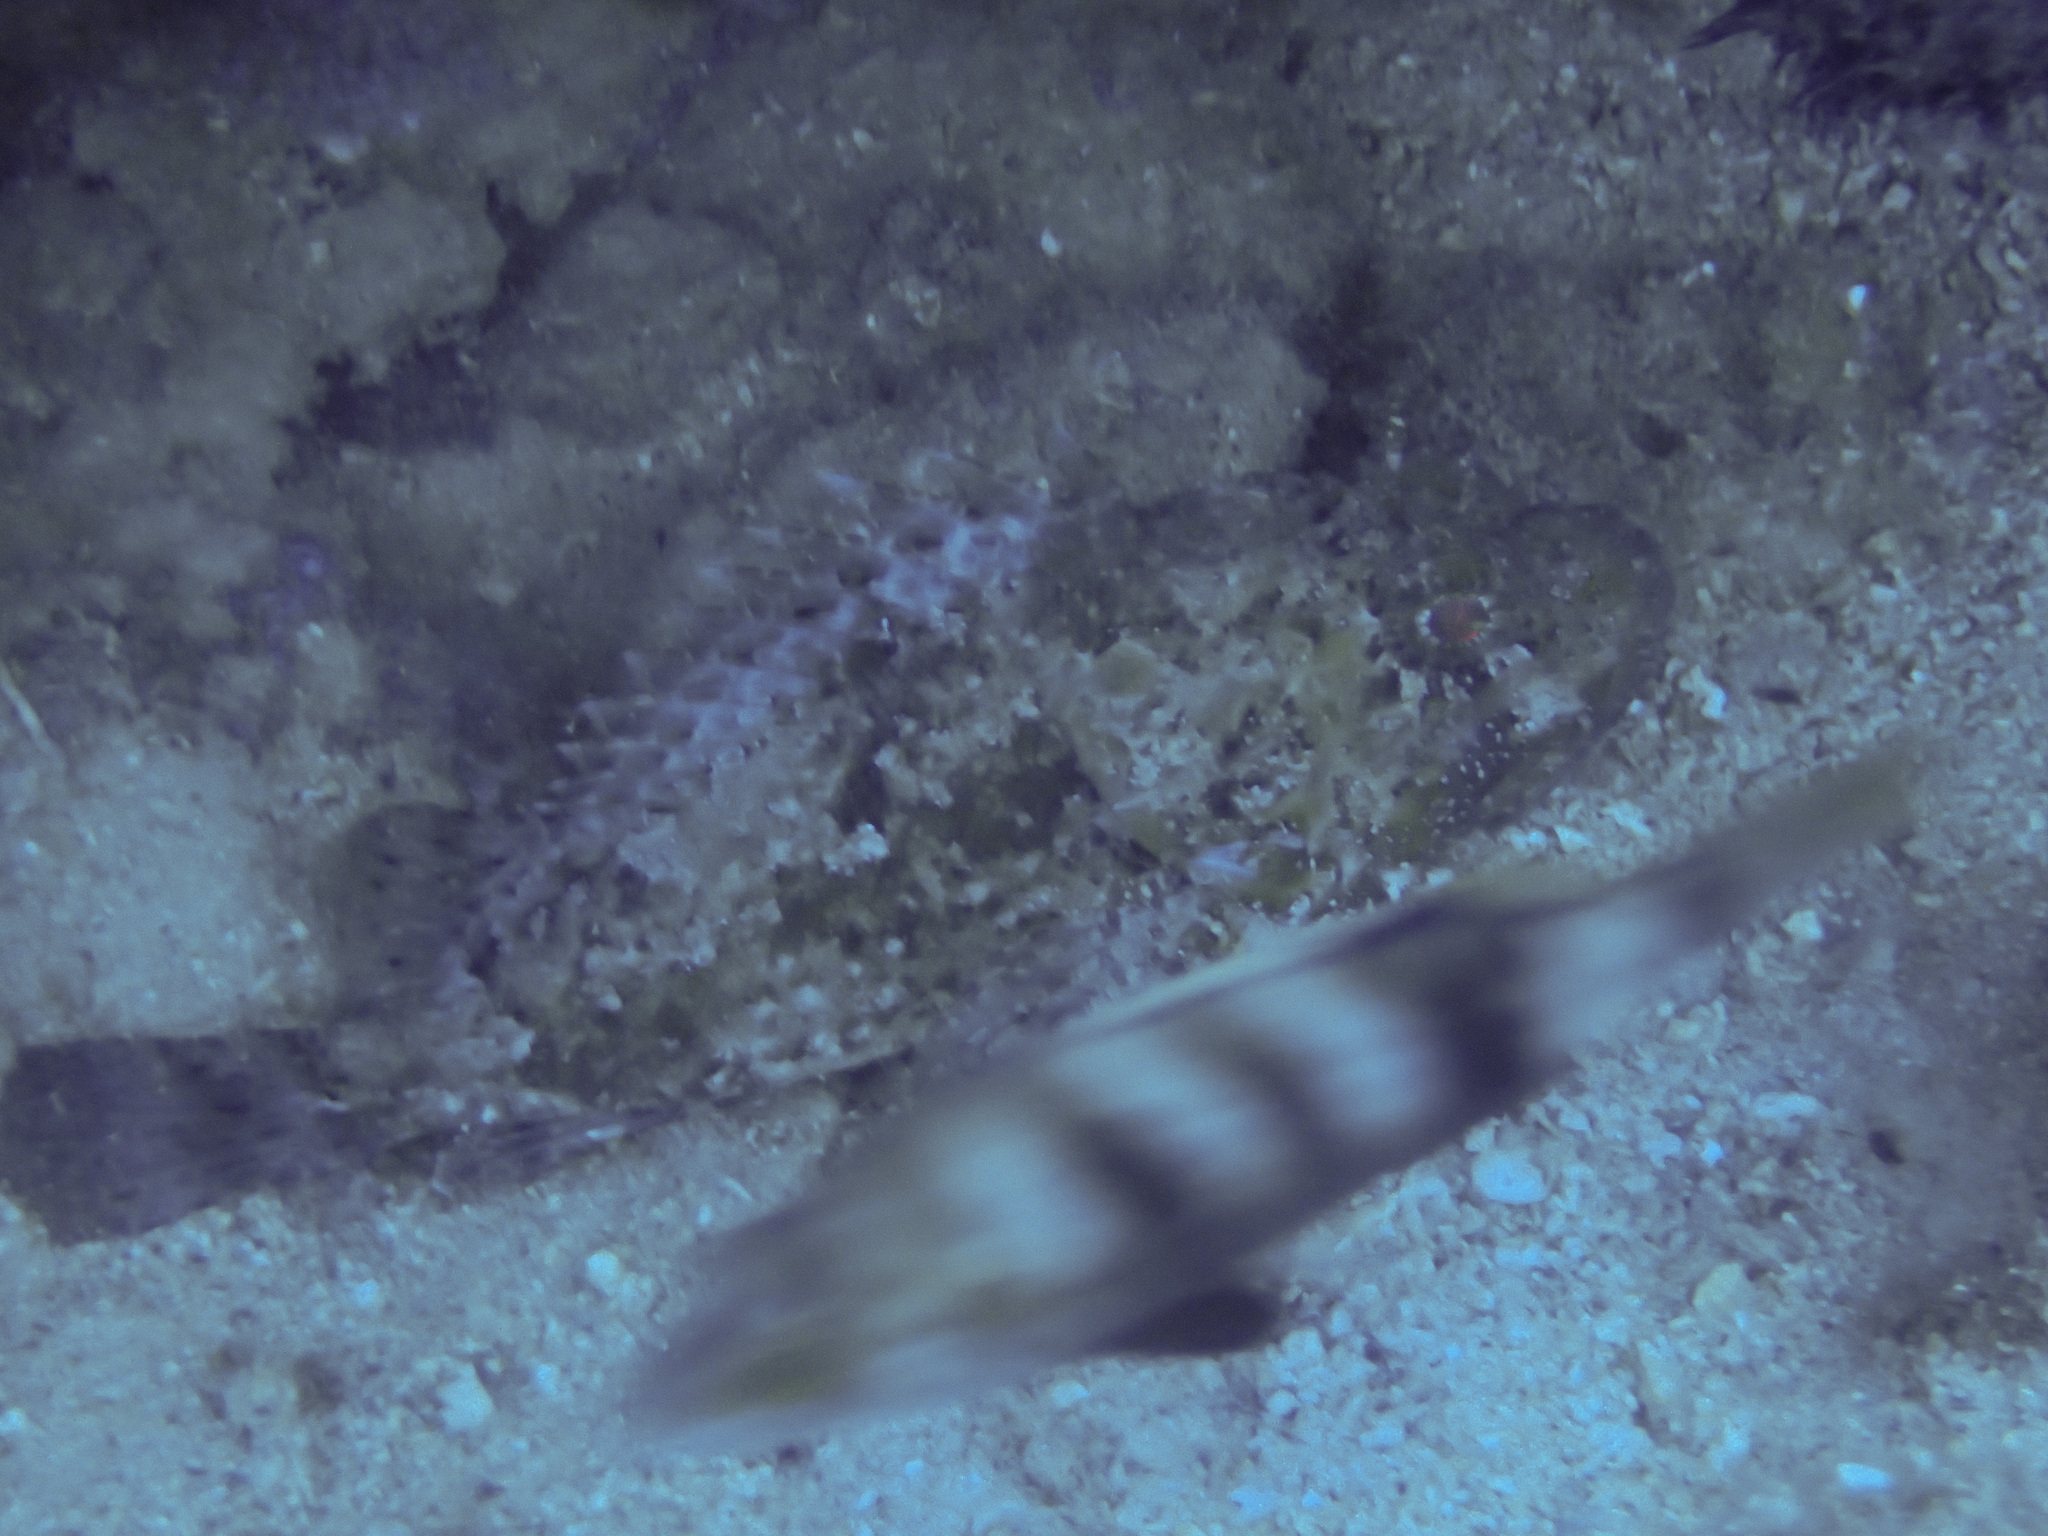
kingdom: Animalia
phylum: Chordata
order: Scorpaeniformes
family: Scorpaenidae
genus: Scorpaena
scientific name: Scorpaena porcus
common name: Black scorpionfish
